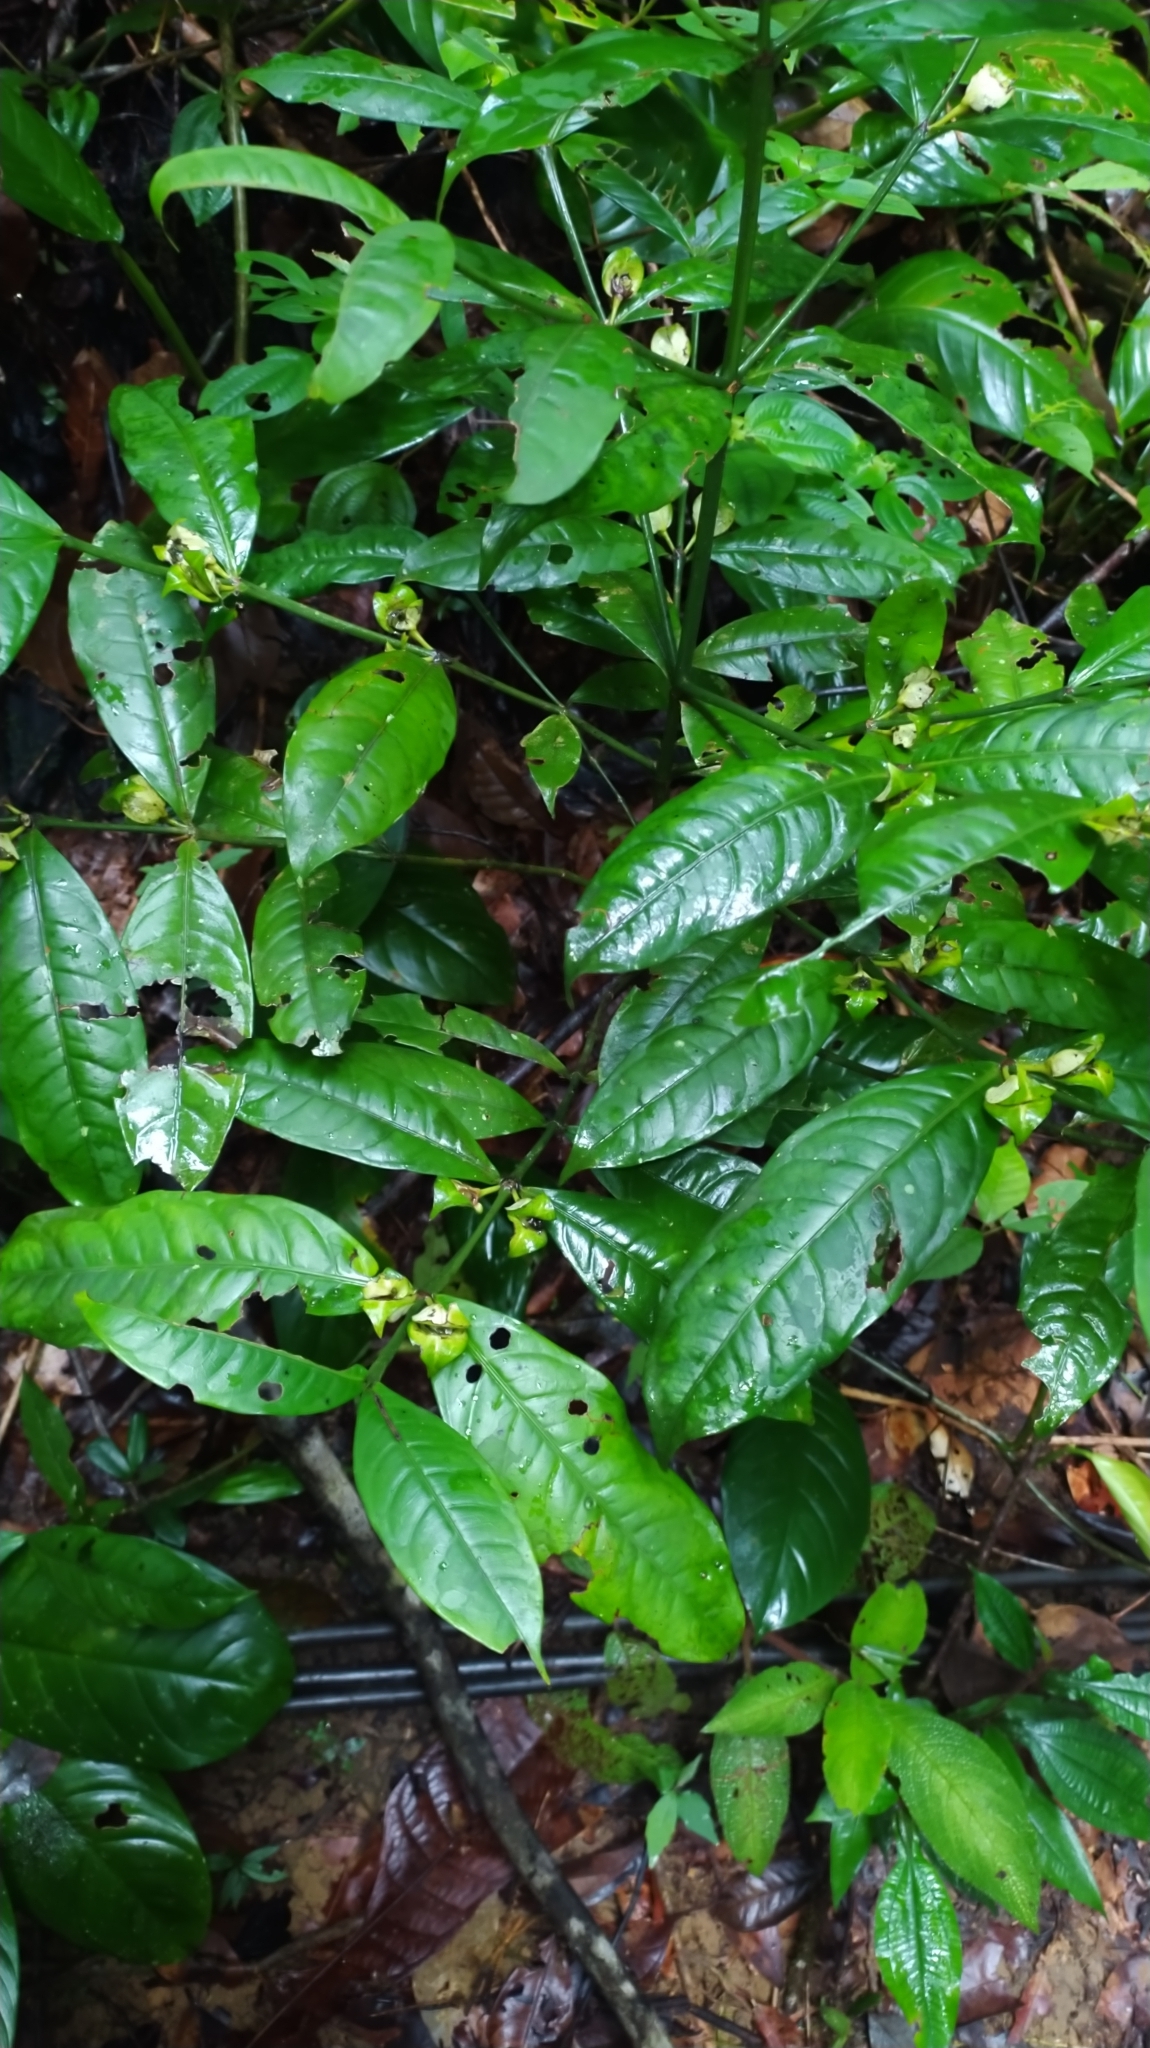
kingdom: Plantae
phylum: Tracheophyta
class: Magnoliopsida
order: Gentianales
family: Rubiaceae
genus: Faramea
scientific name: Faramea guianensis
